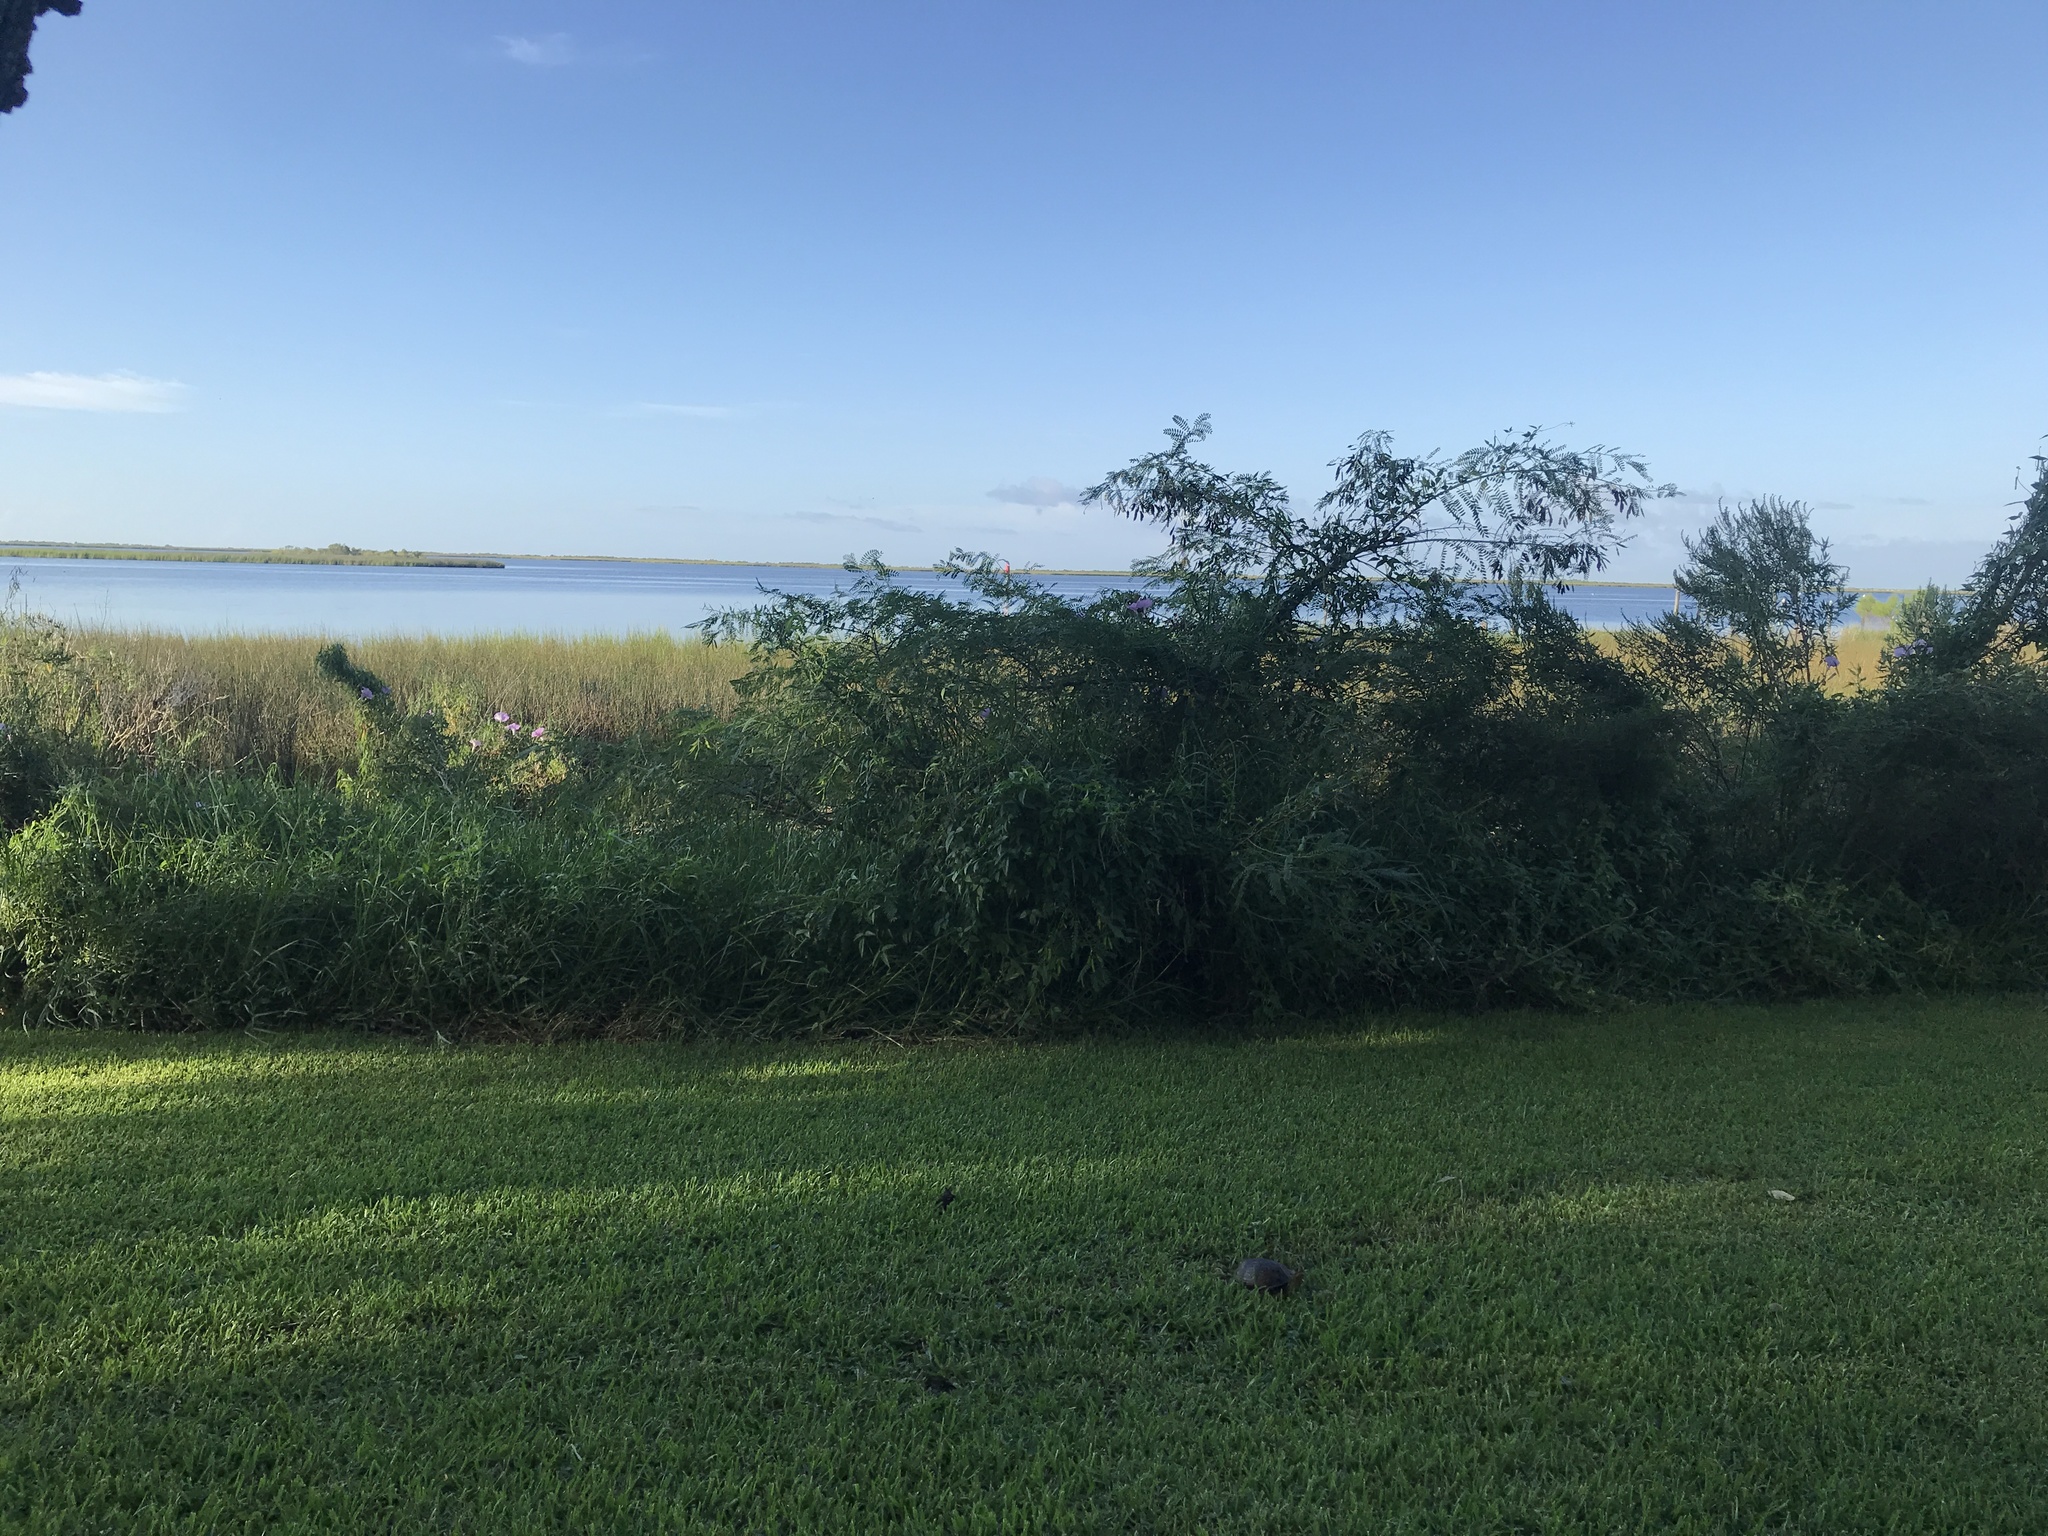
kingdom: Animalia
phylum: Chordata
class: Testudines
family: Emydidae
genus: Terrapene
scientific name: Terrapene carolina
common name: Common box turtle
